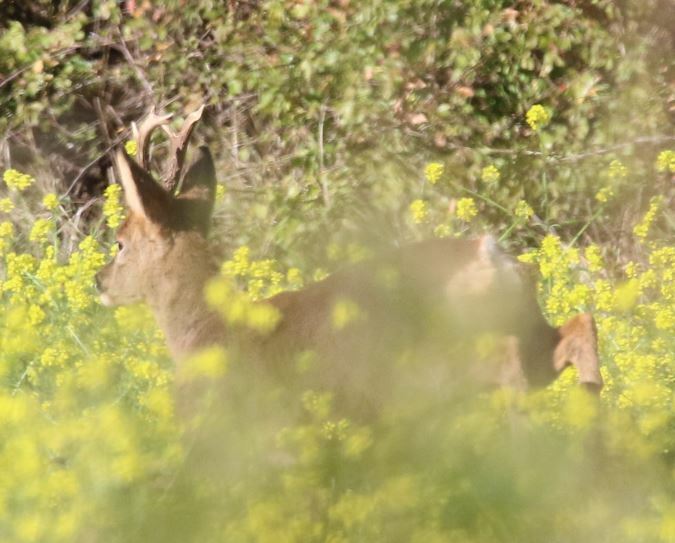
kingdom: Animalia
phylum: Chordata
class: Mammalia
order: Artiodactyla
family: Cervidae
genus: Capreolus
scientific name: Capreolus capreolus
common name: Western roe deer
